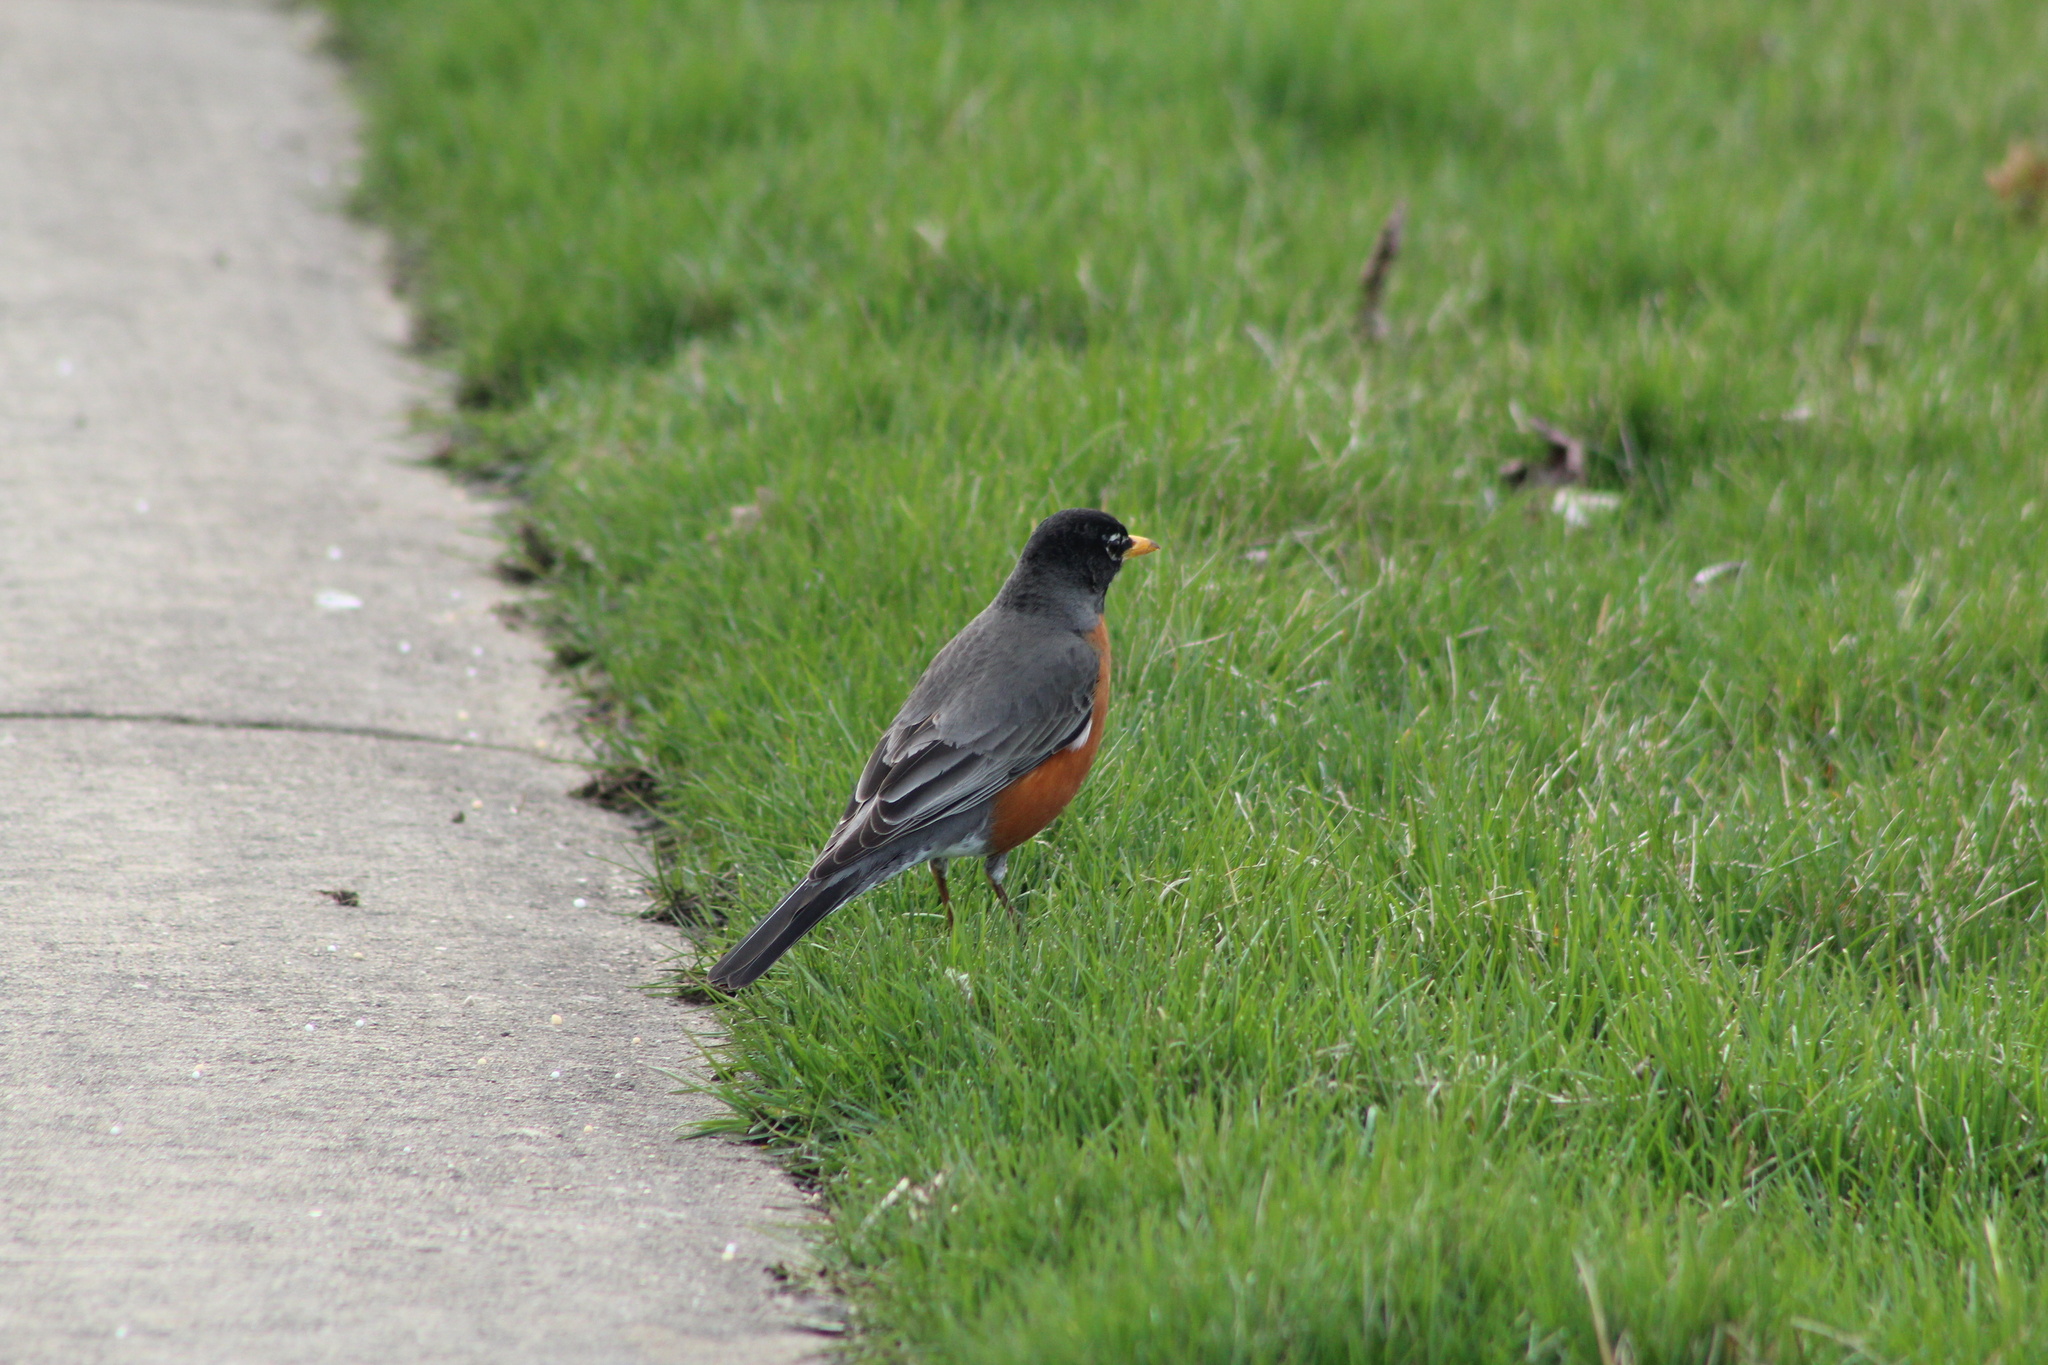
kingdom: Animalia
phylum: Chordata
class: Aves
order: Passeriformes
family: Turdidae
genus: Turdus
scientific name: Turdus migratorius
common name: American robin
